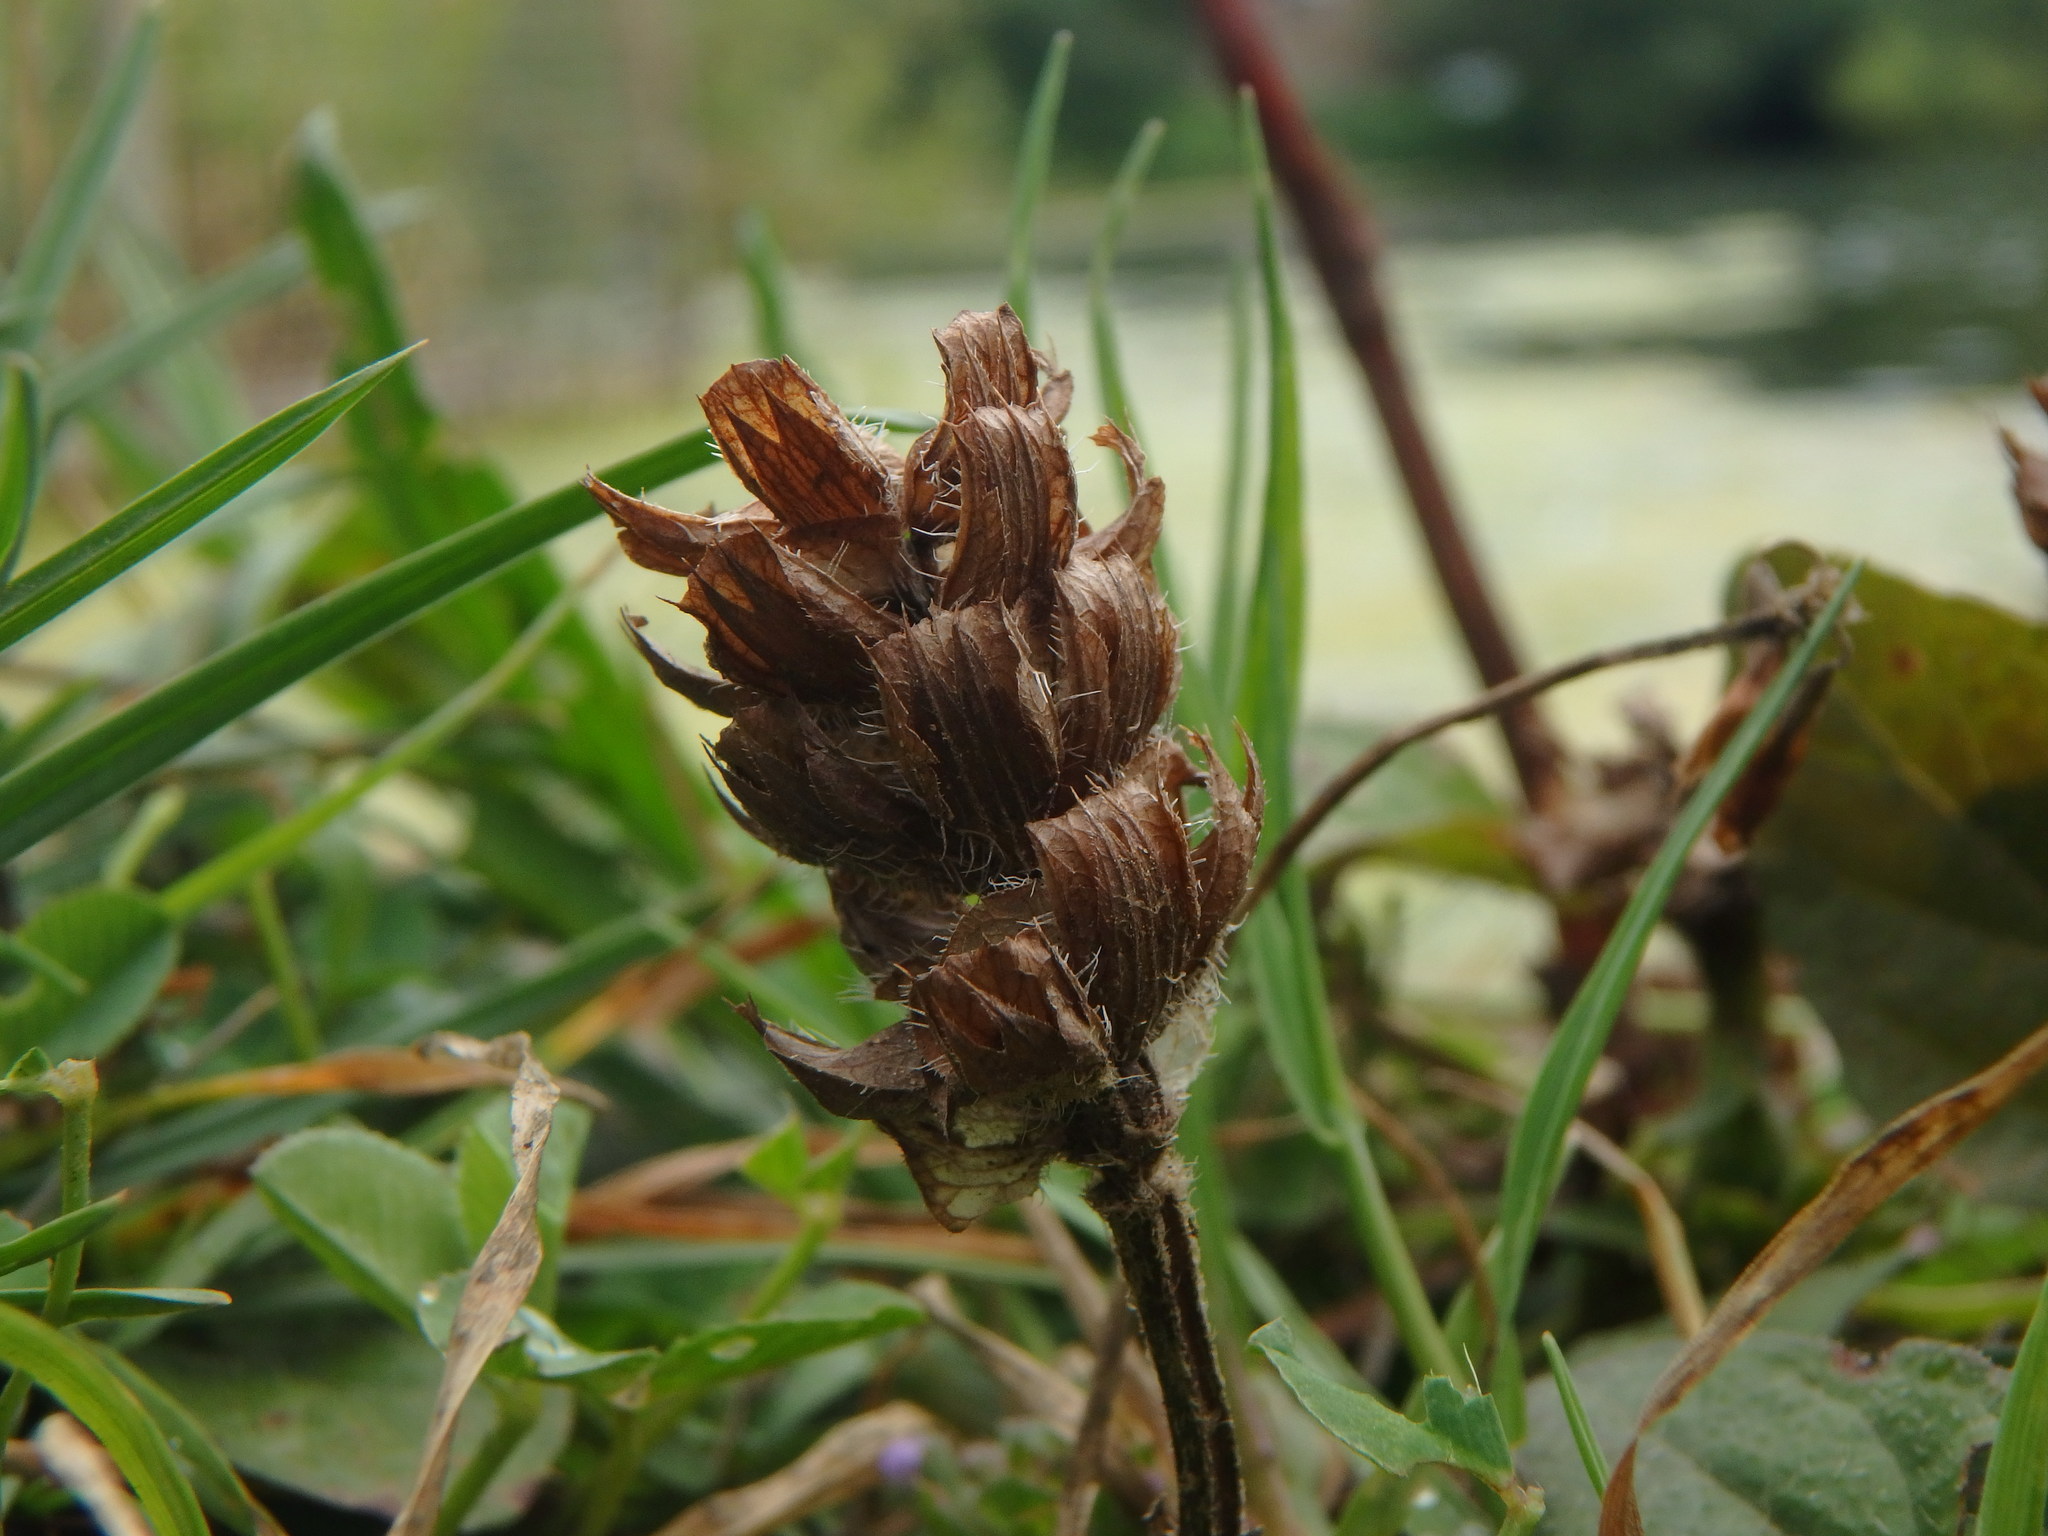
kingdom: Plantae
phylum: Tracheophyta
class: Magnoliopsida
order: Lamiales
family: Lamiaceae
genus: Prunella
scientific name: Prunella vulgaris
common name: Heal-all
